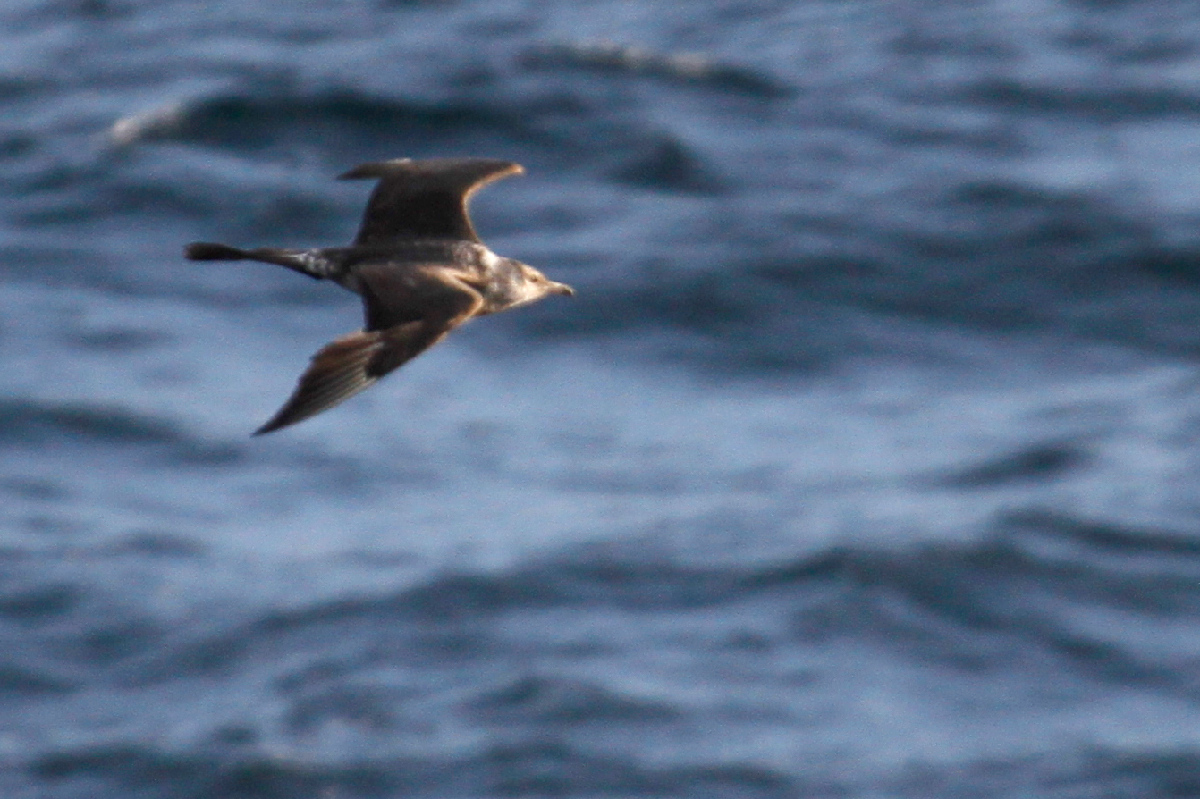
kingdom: Animalia
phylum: Chordata
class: Aves
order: Charadriiformes
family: Stercorariidae
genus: Stercorarius
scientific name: Stercorarius pomarinus
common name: Pomarine jaeger
